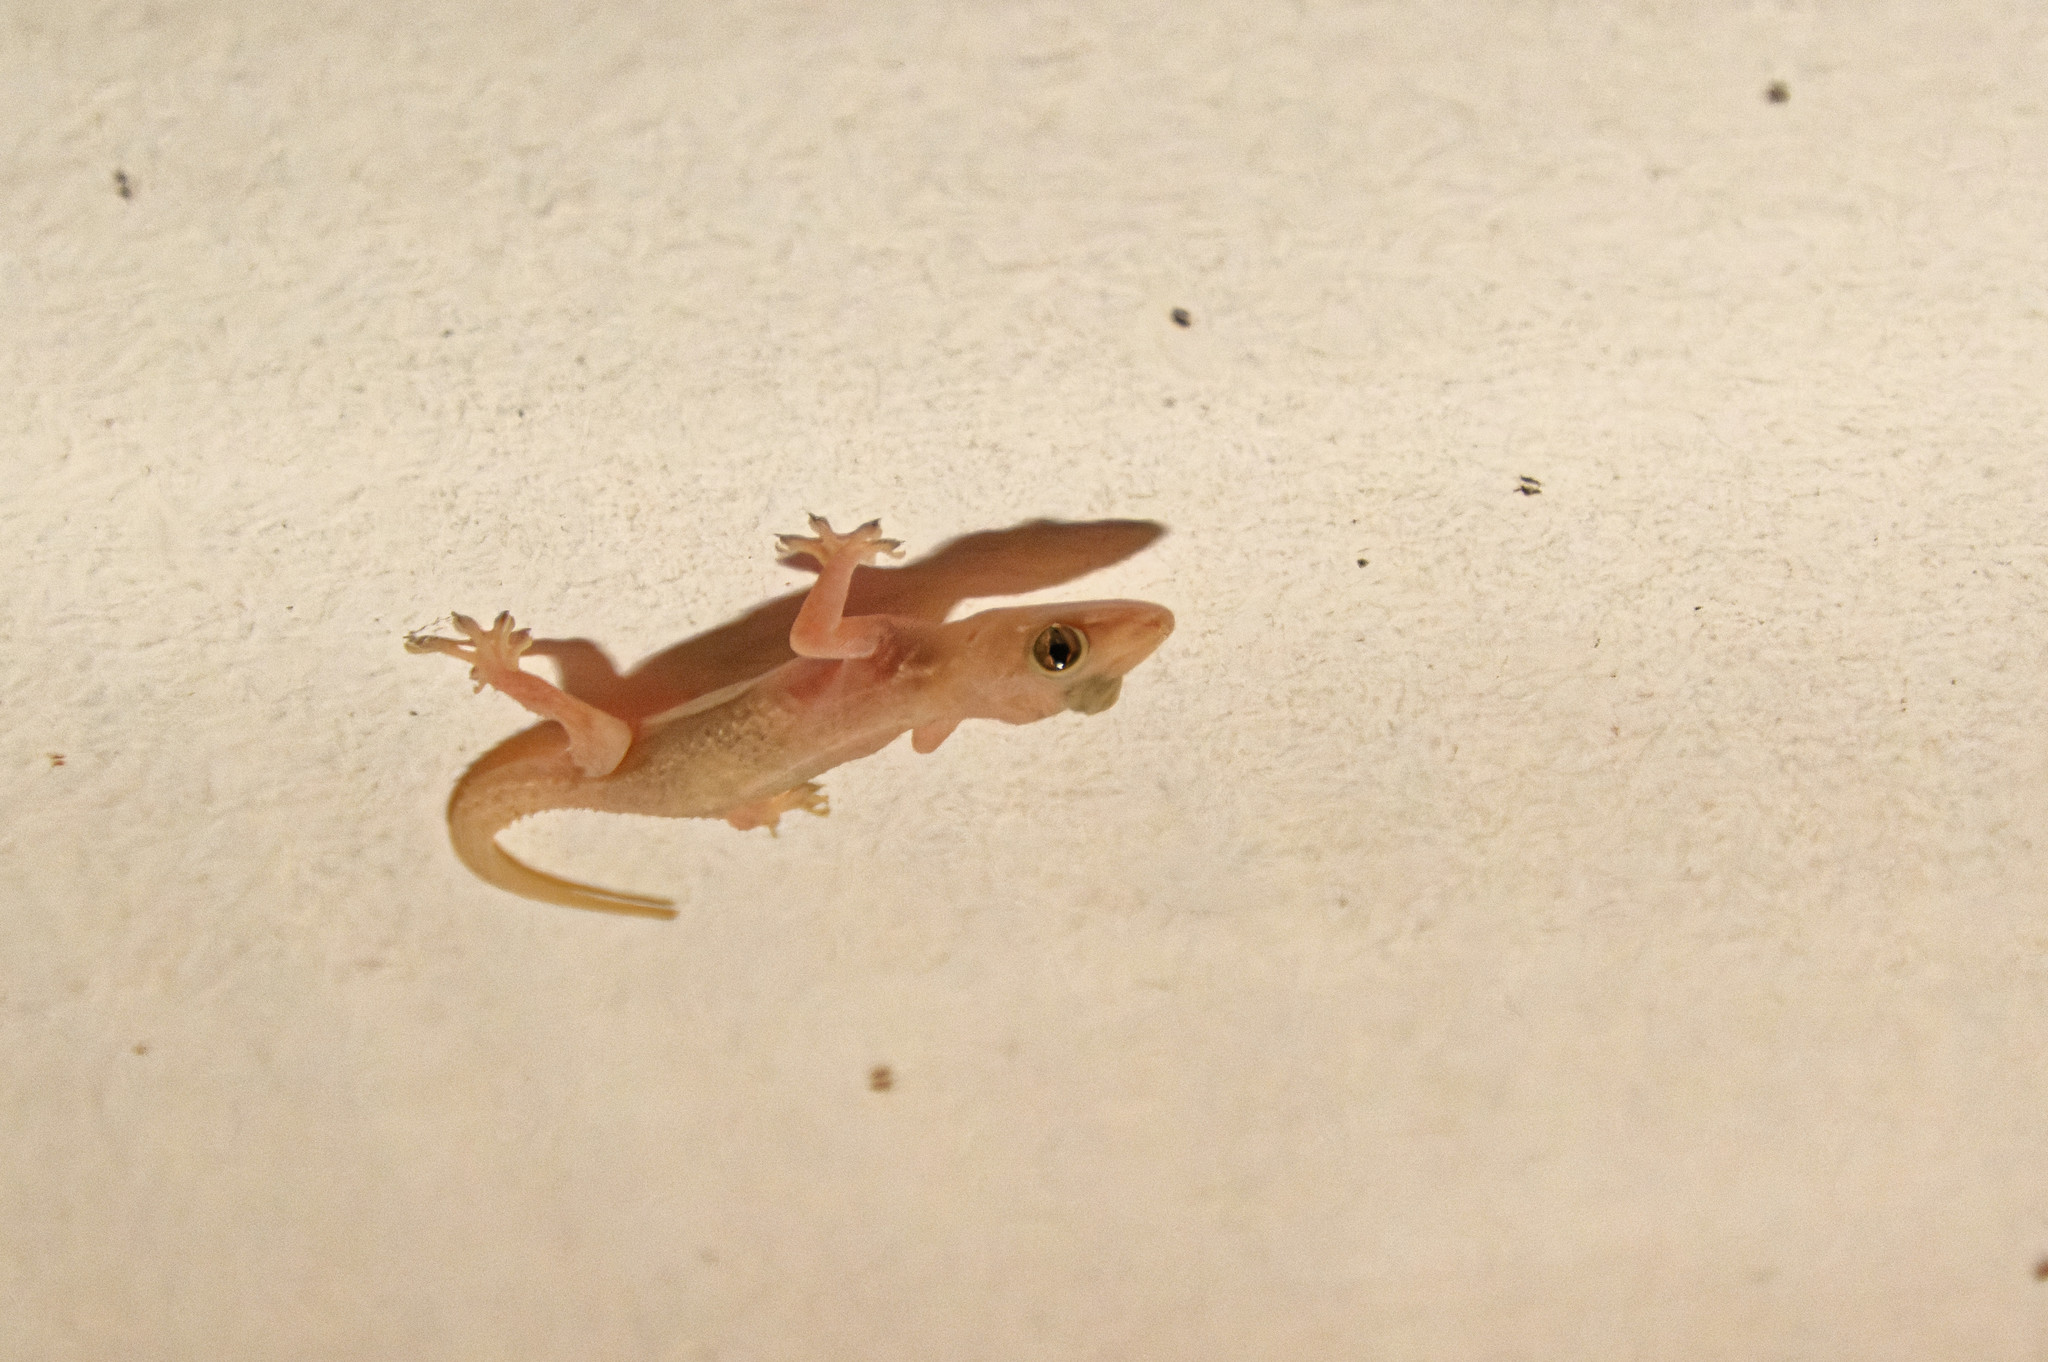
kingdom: Animalia
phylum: Chordata
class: Squamata
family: Gekkonidae
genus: Hemidactylus
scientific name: Hemidactylus mabouia
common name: House gecko
